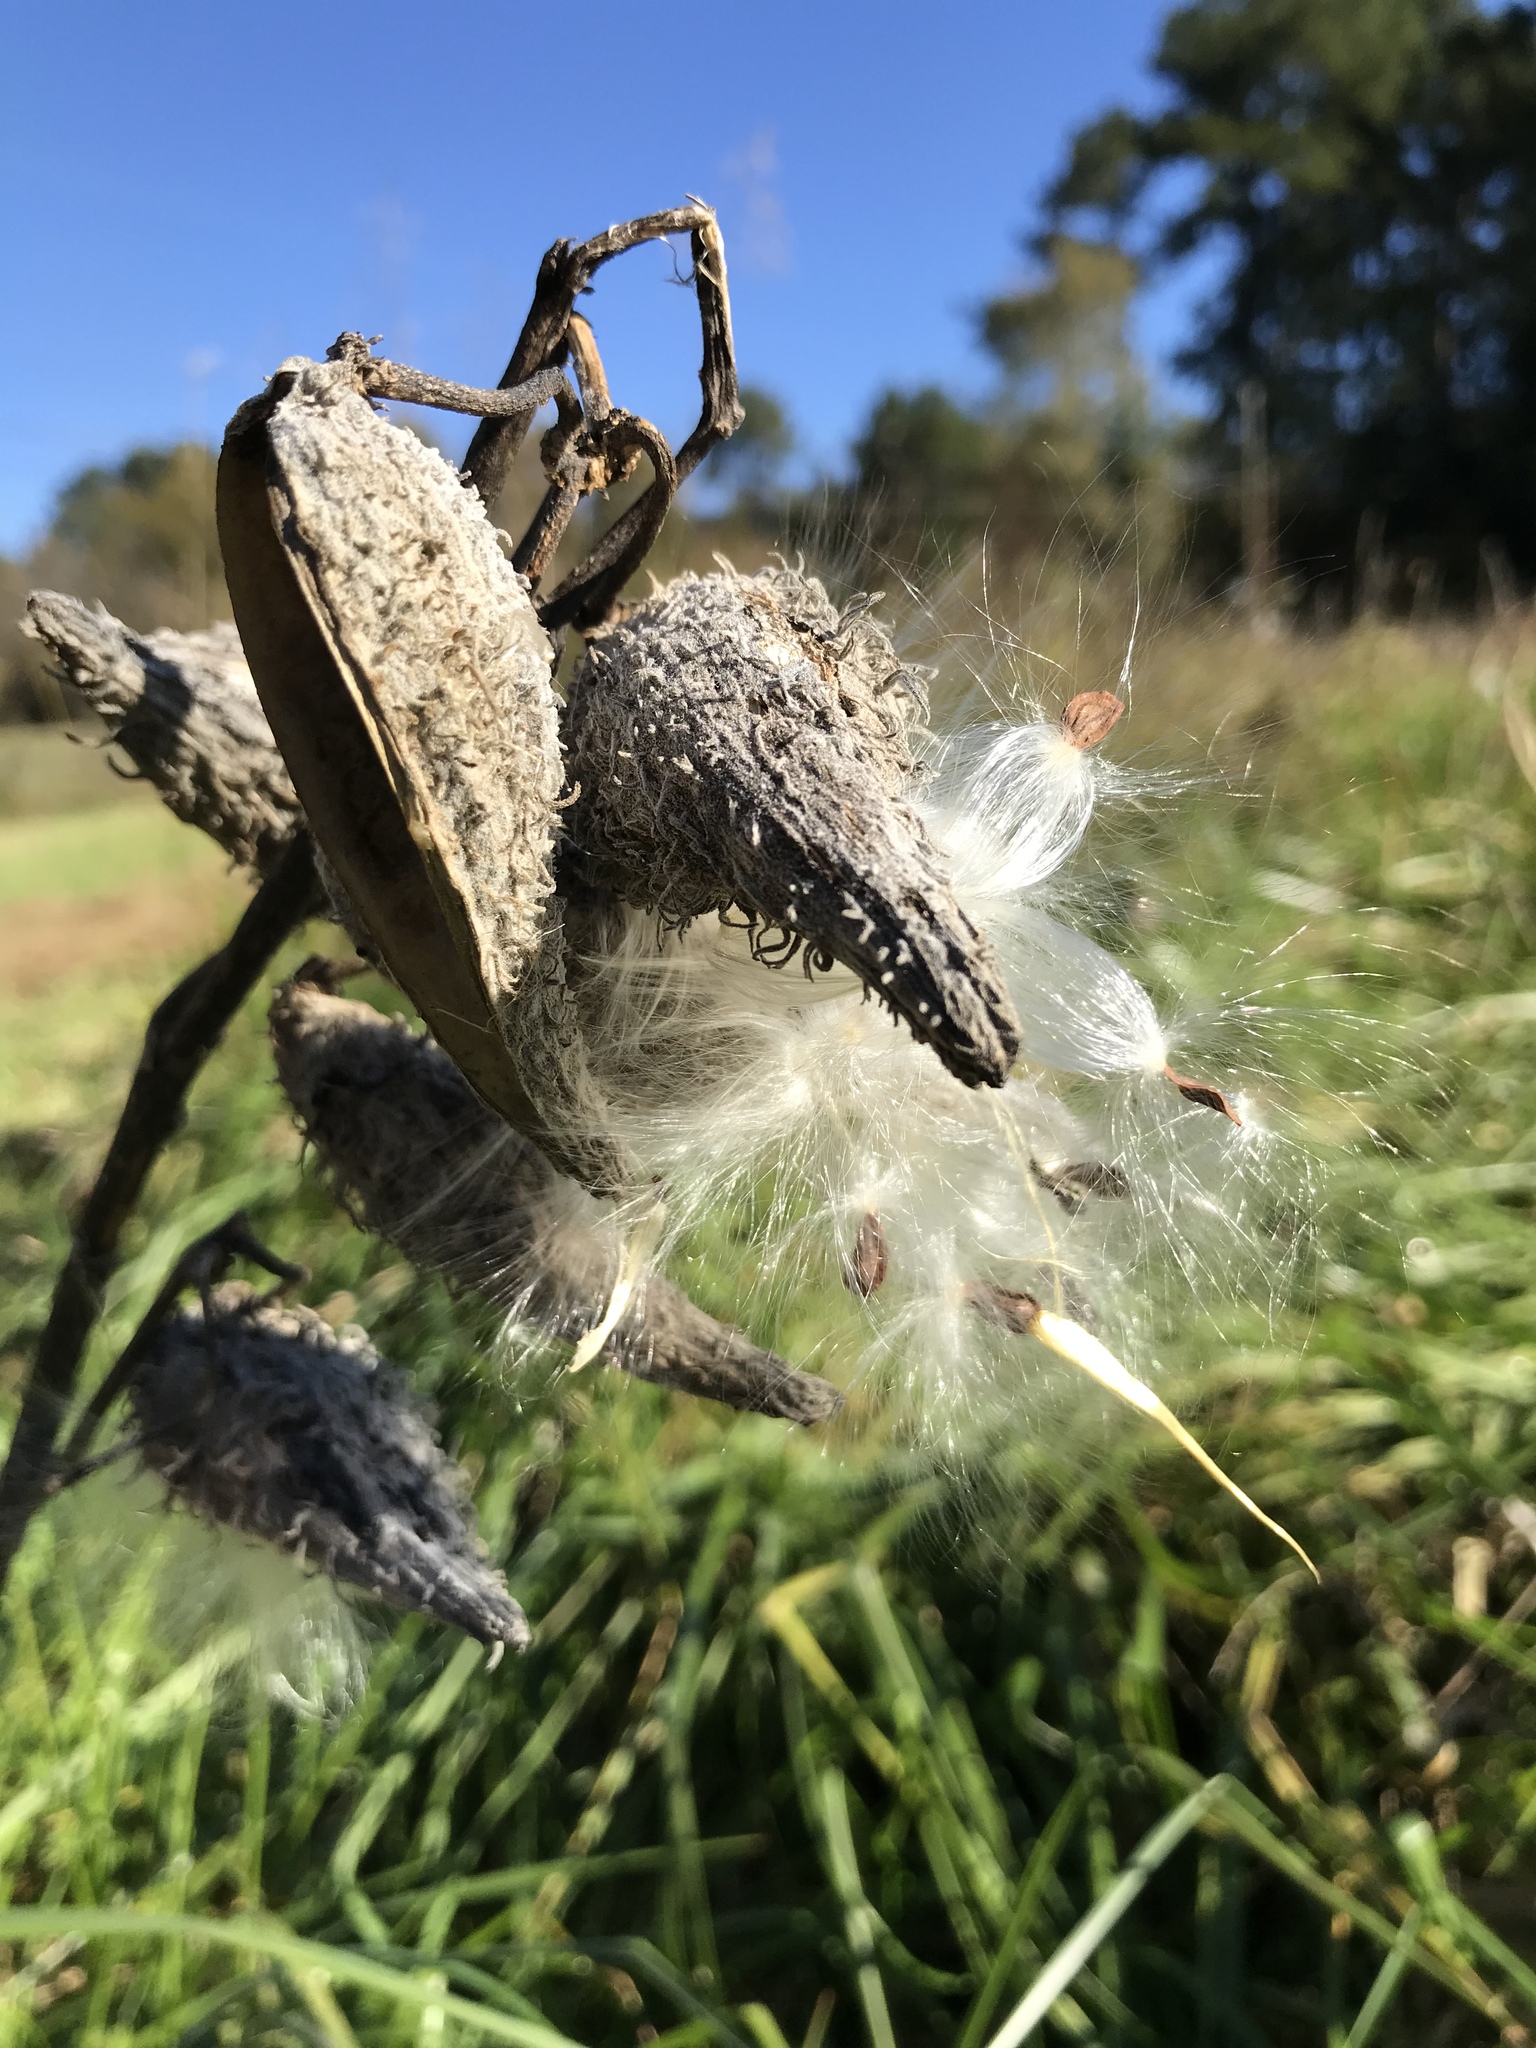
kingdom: Plantae
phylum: Tracheophyta
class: Magnoliopsida
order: Gentianales
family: Apocynaceae
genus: Asclepias
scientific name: Asclepias syriaca
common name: Common milkweed
